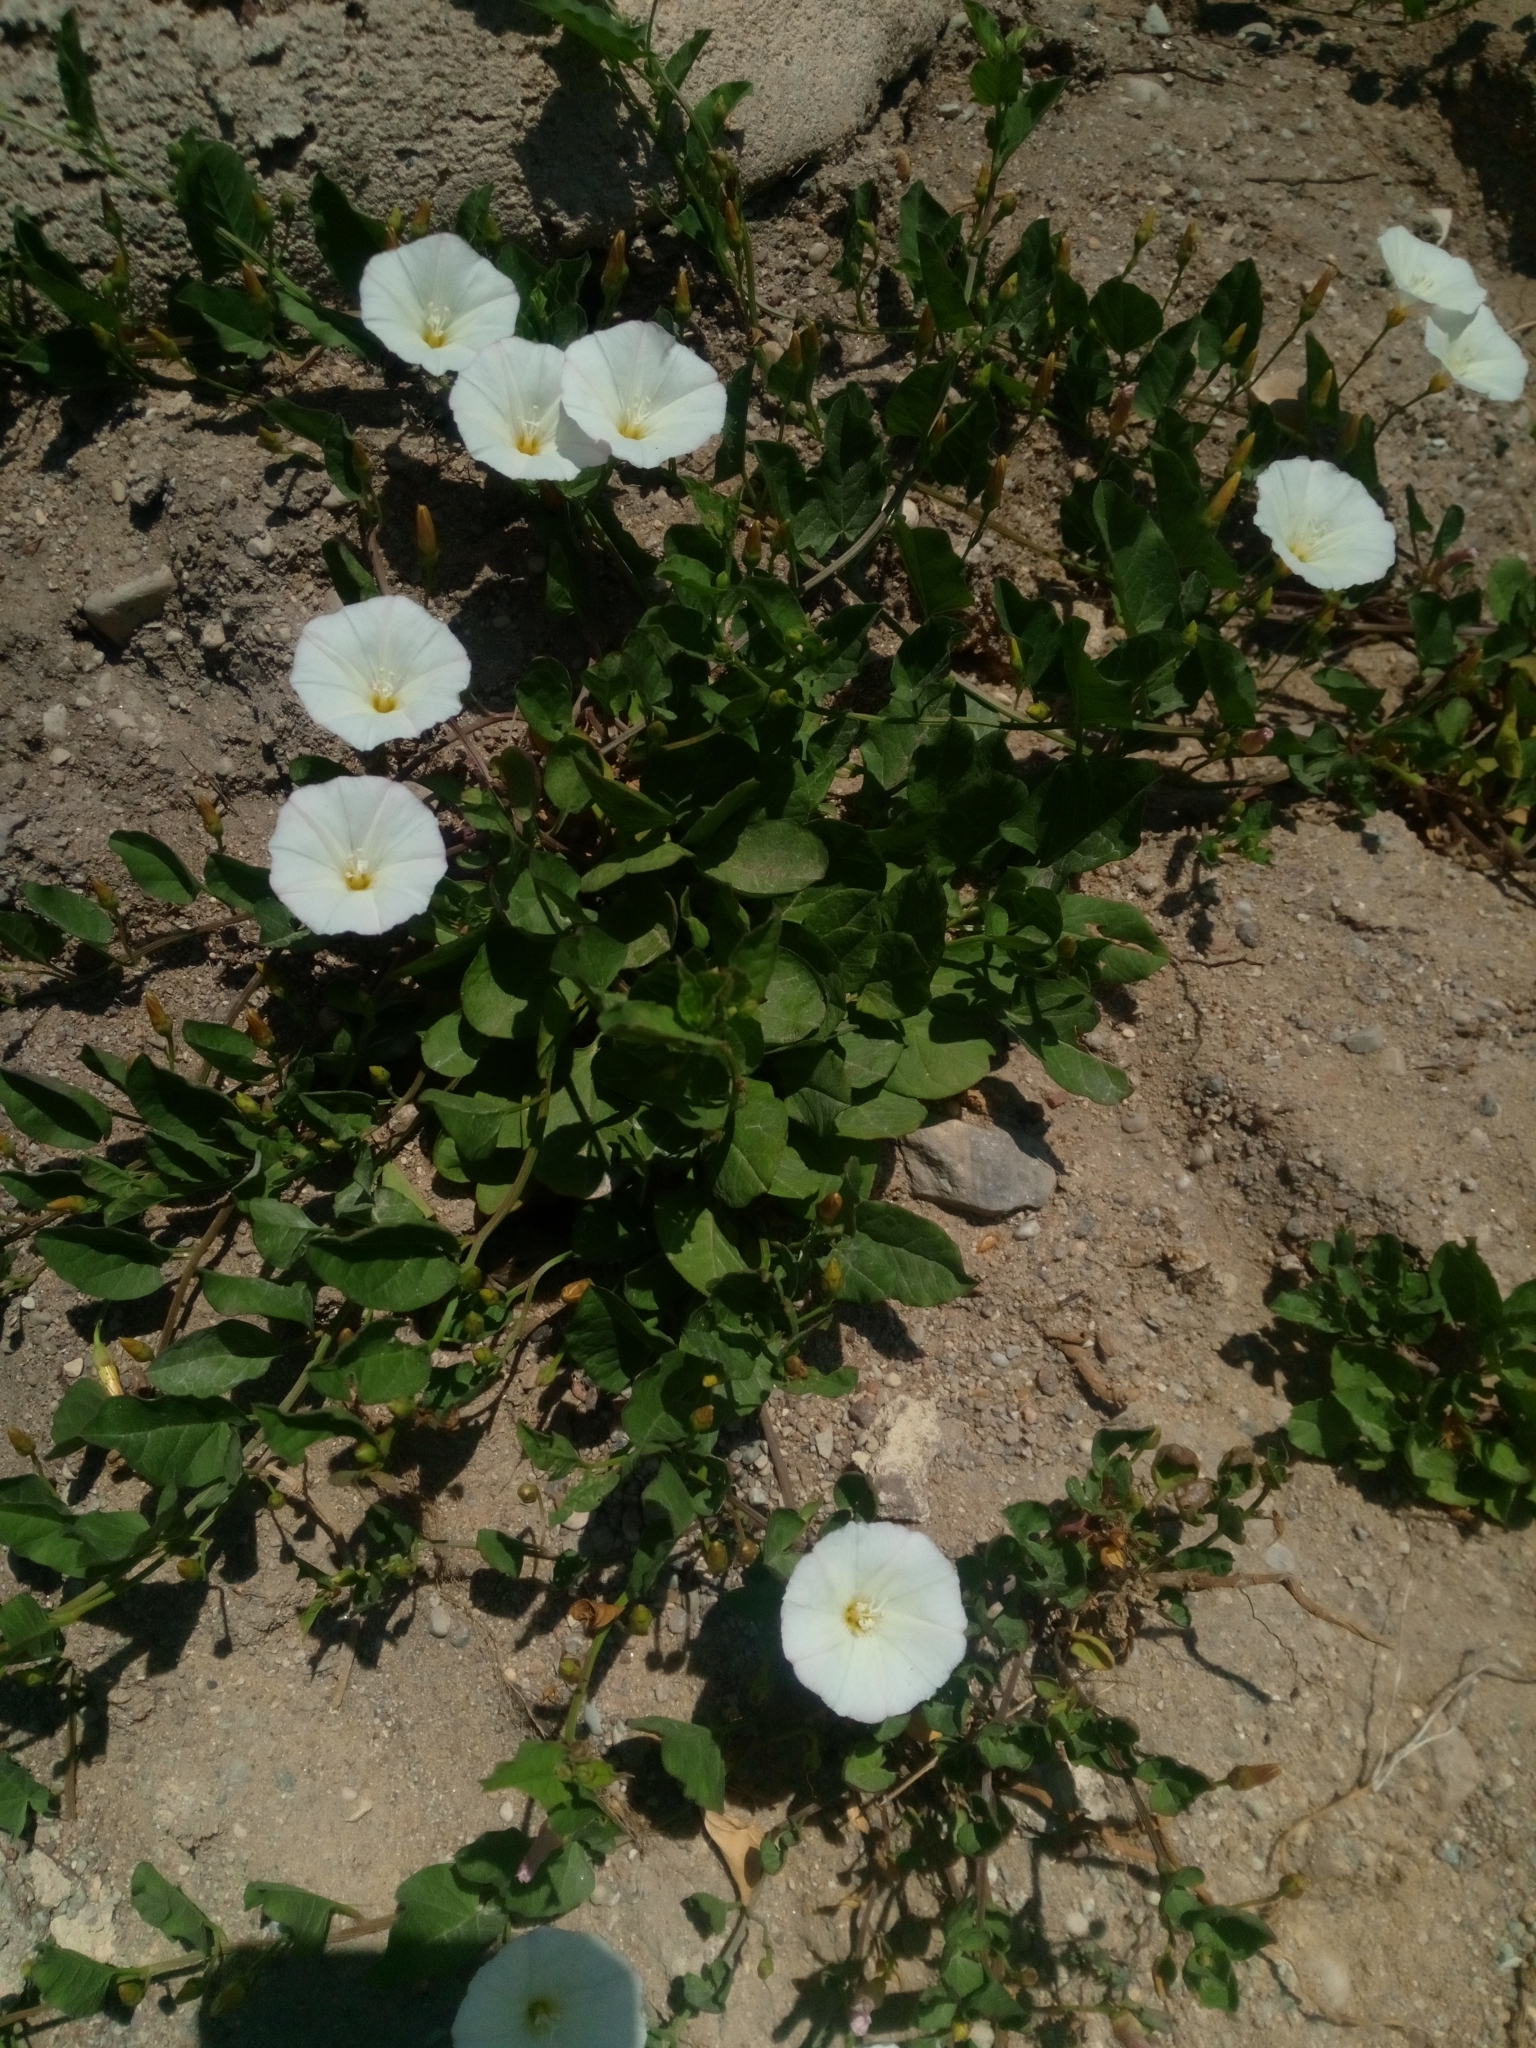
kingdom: Plantae
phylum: Tracheophyta
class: Magnoliopsida
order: Solanales
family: Convolvulaceae
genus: Convolvulus
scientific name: Convolvulus arvensis
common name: Field bindweed
